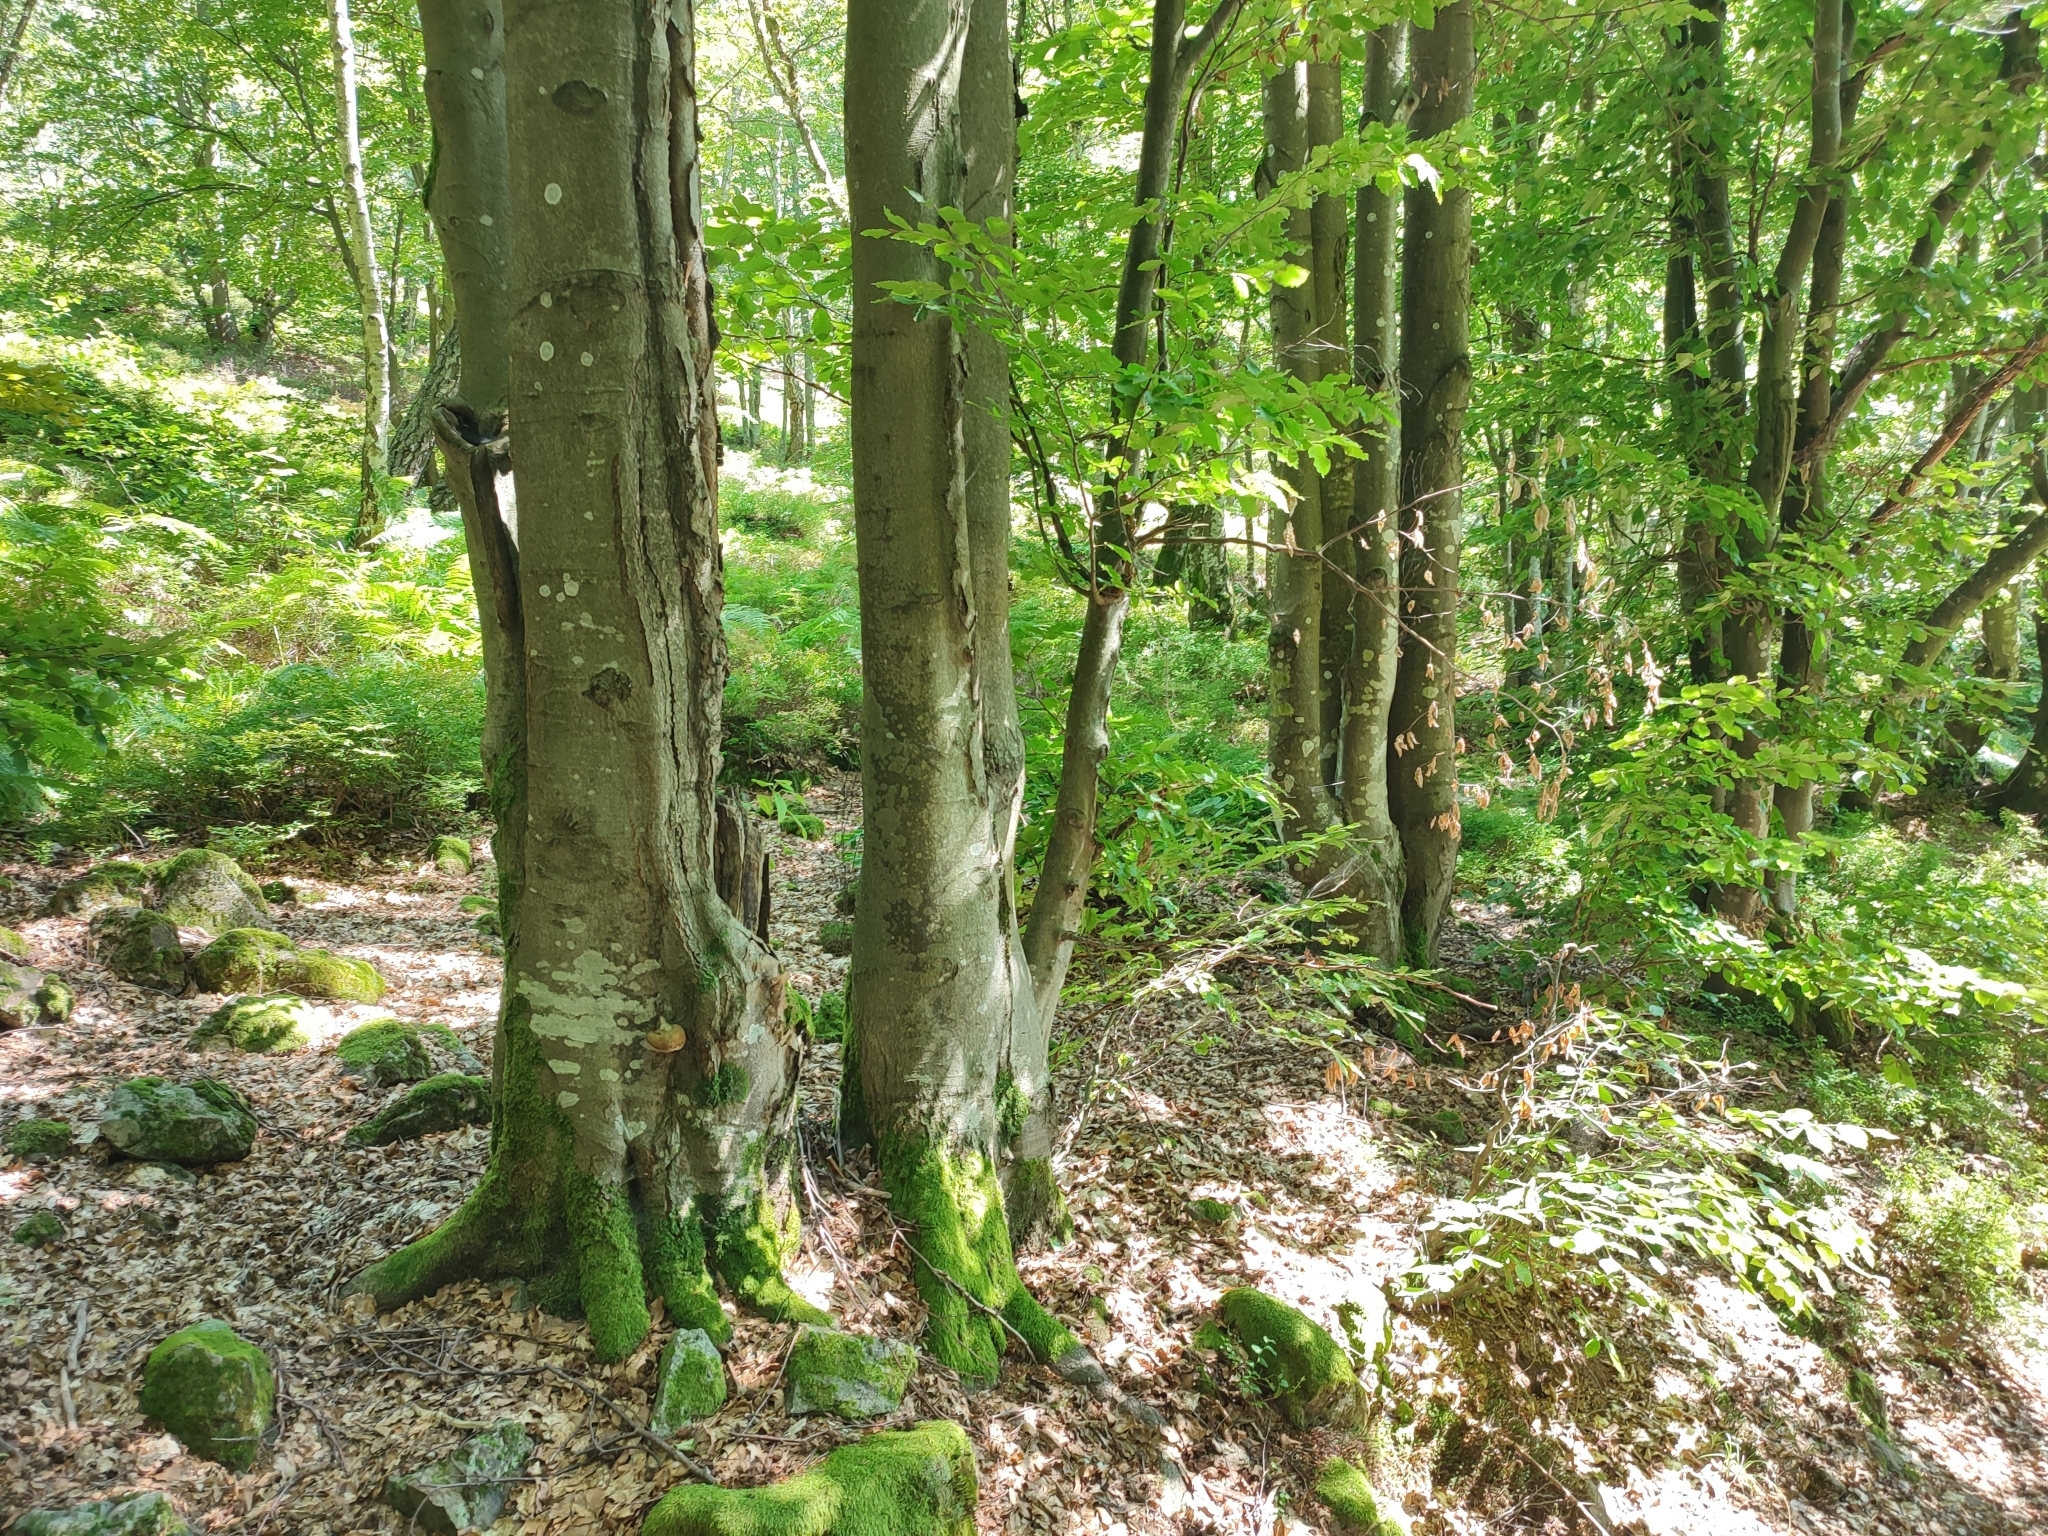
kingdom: Plantae
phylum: Tracheophyta
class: Magnoliopsida
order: Fagales
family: Fagaceae
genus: Fagus
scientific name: Fagus sylvatica
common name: Beech
